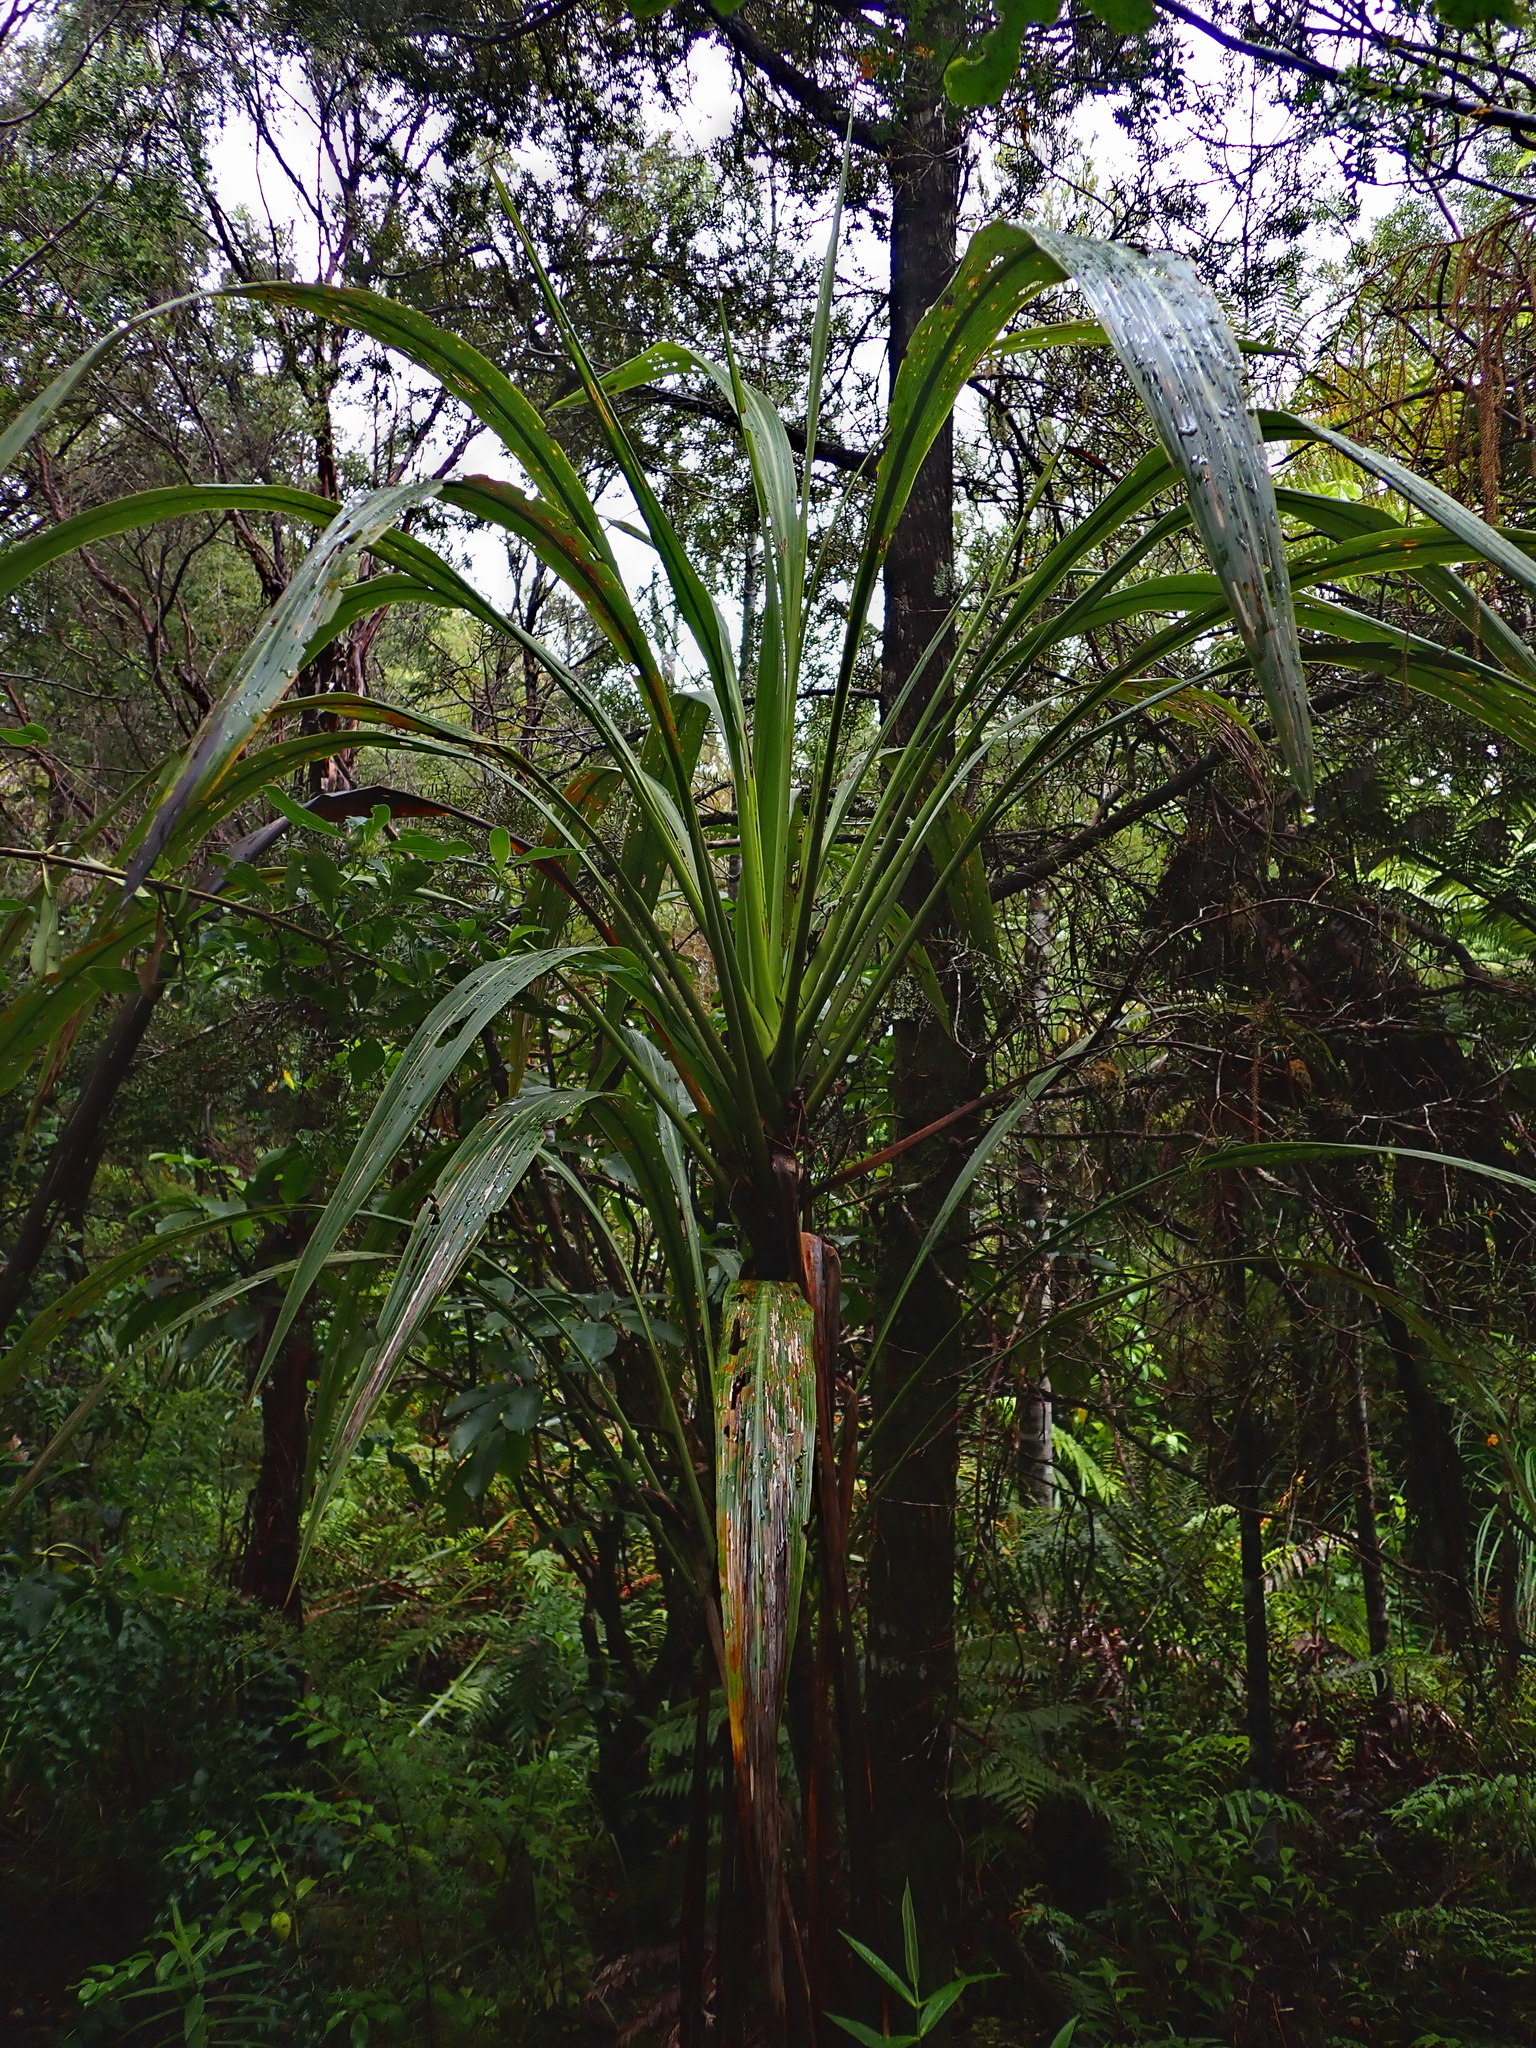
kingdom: Plantae
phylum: Tracheophyta
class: Liliopsida
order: Asparagales
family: Asparagaceae
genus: Cordyline
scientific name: Cordyline banksii
